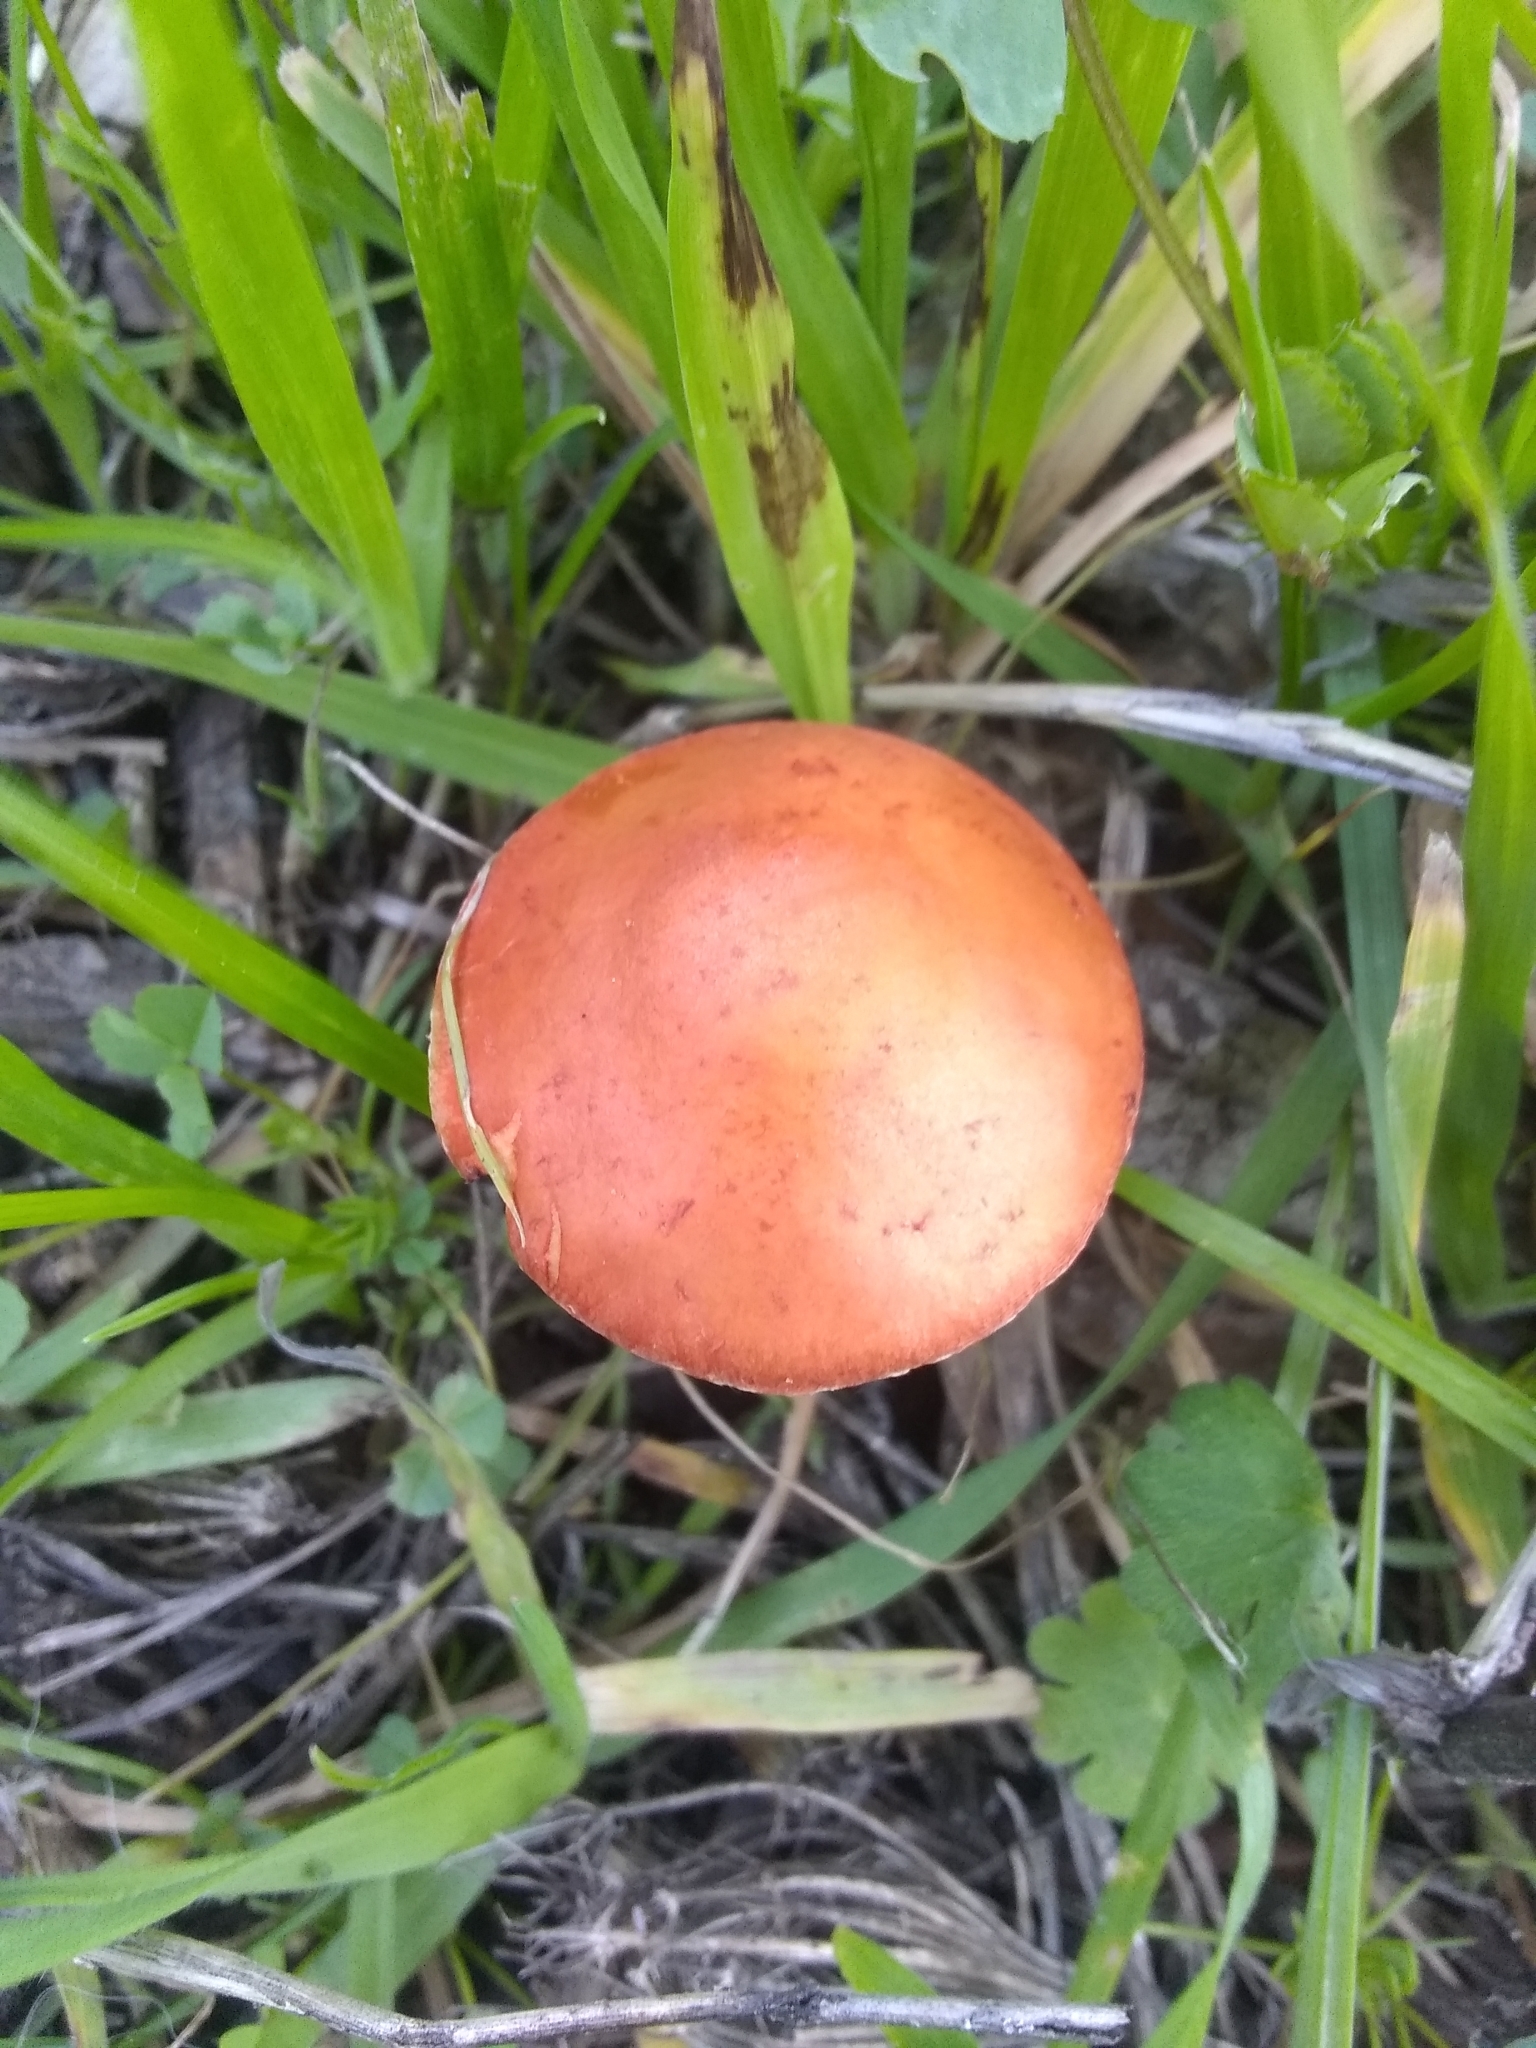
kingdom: Fungi
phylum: Basidiomycota
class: Agaricomycetes
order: Agaricales
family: Strophariaceae
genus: Leratiomyces
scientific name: Leratiomyces ceres
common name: Redlead roundhead
